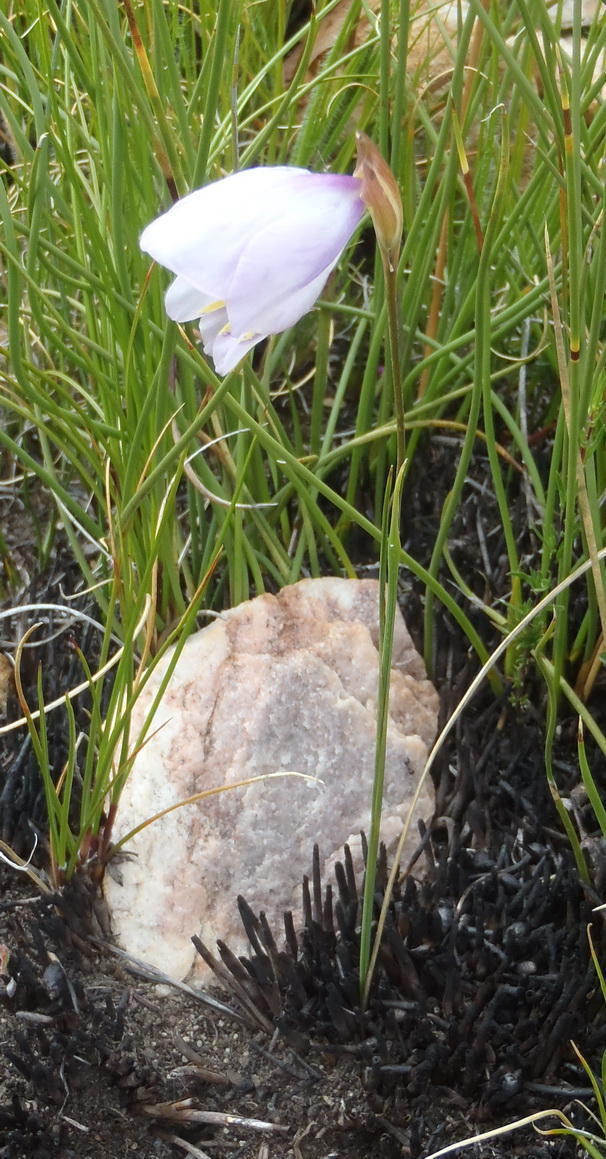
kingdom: Plantae
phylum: Tracheophyta
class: Liliopsida
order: Asparagales
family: Iridaceae
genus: Gladiolus
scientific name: Gladiolus patersoniae
